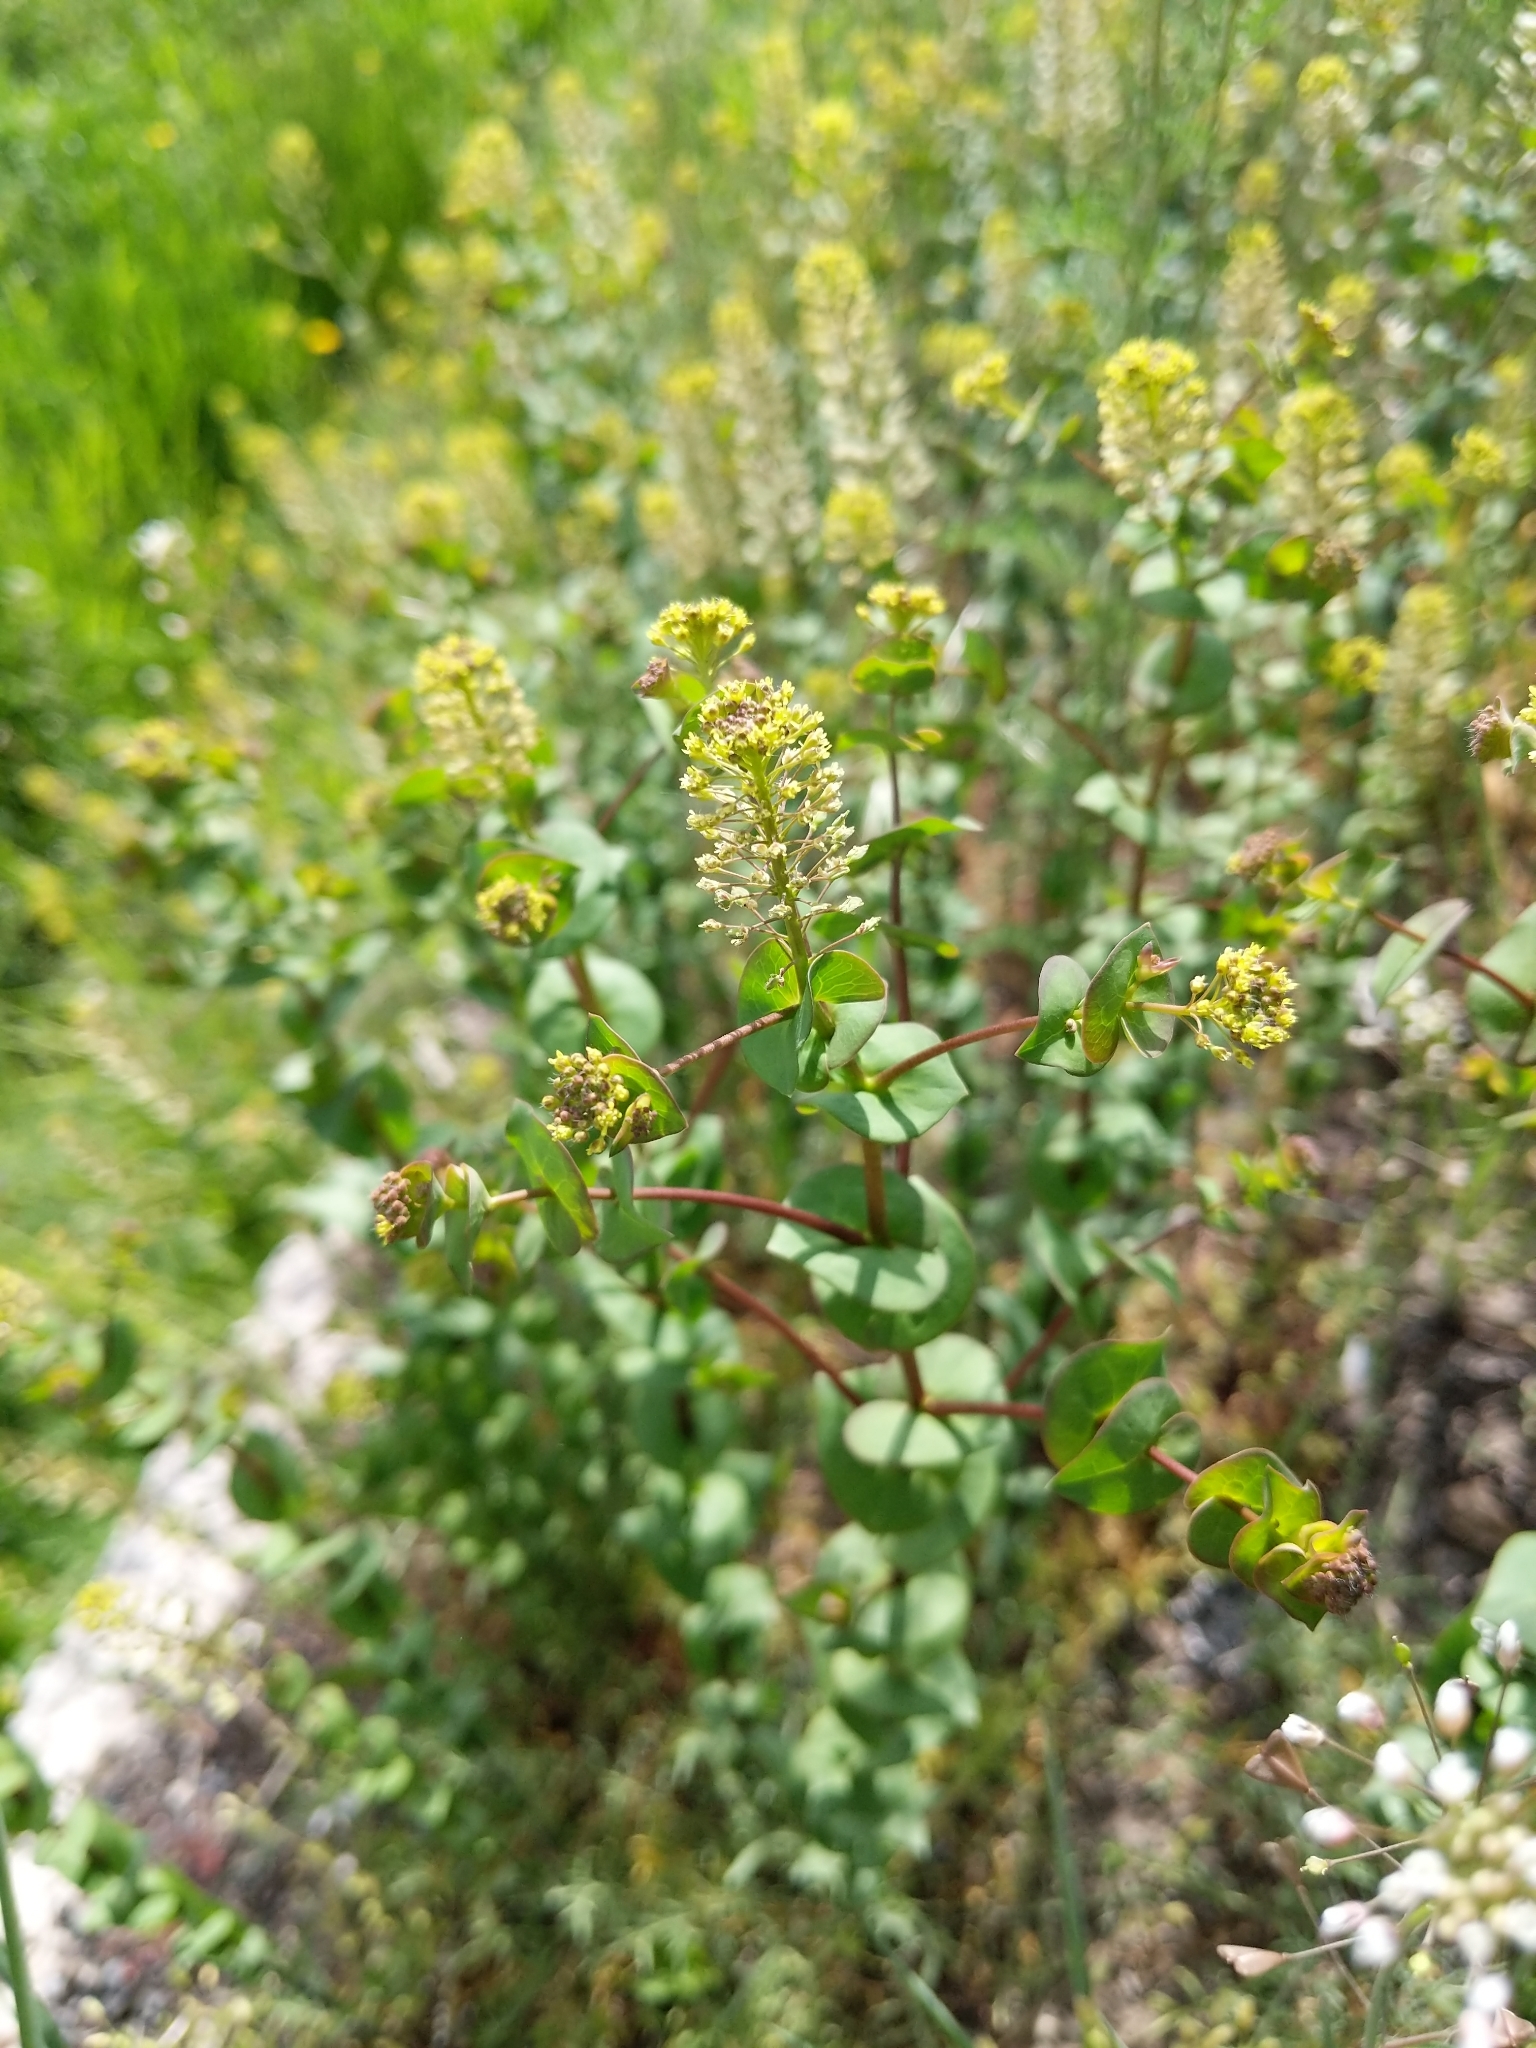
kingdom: Plantae
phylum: Tracheophyta
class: Magnoliopsida
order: Brassicales
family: Brassicaceae
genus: Lepidium
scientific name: Lepidium perfoliatum
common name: Perfoliate pepperwort
